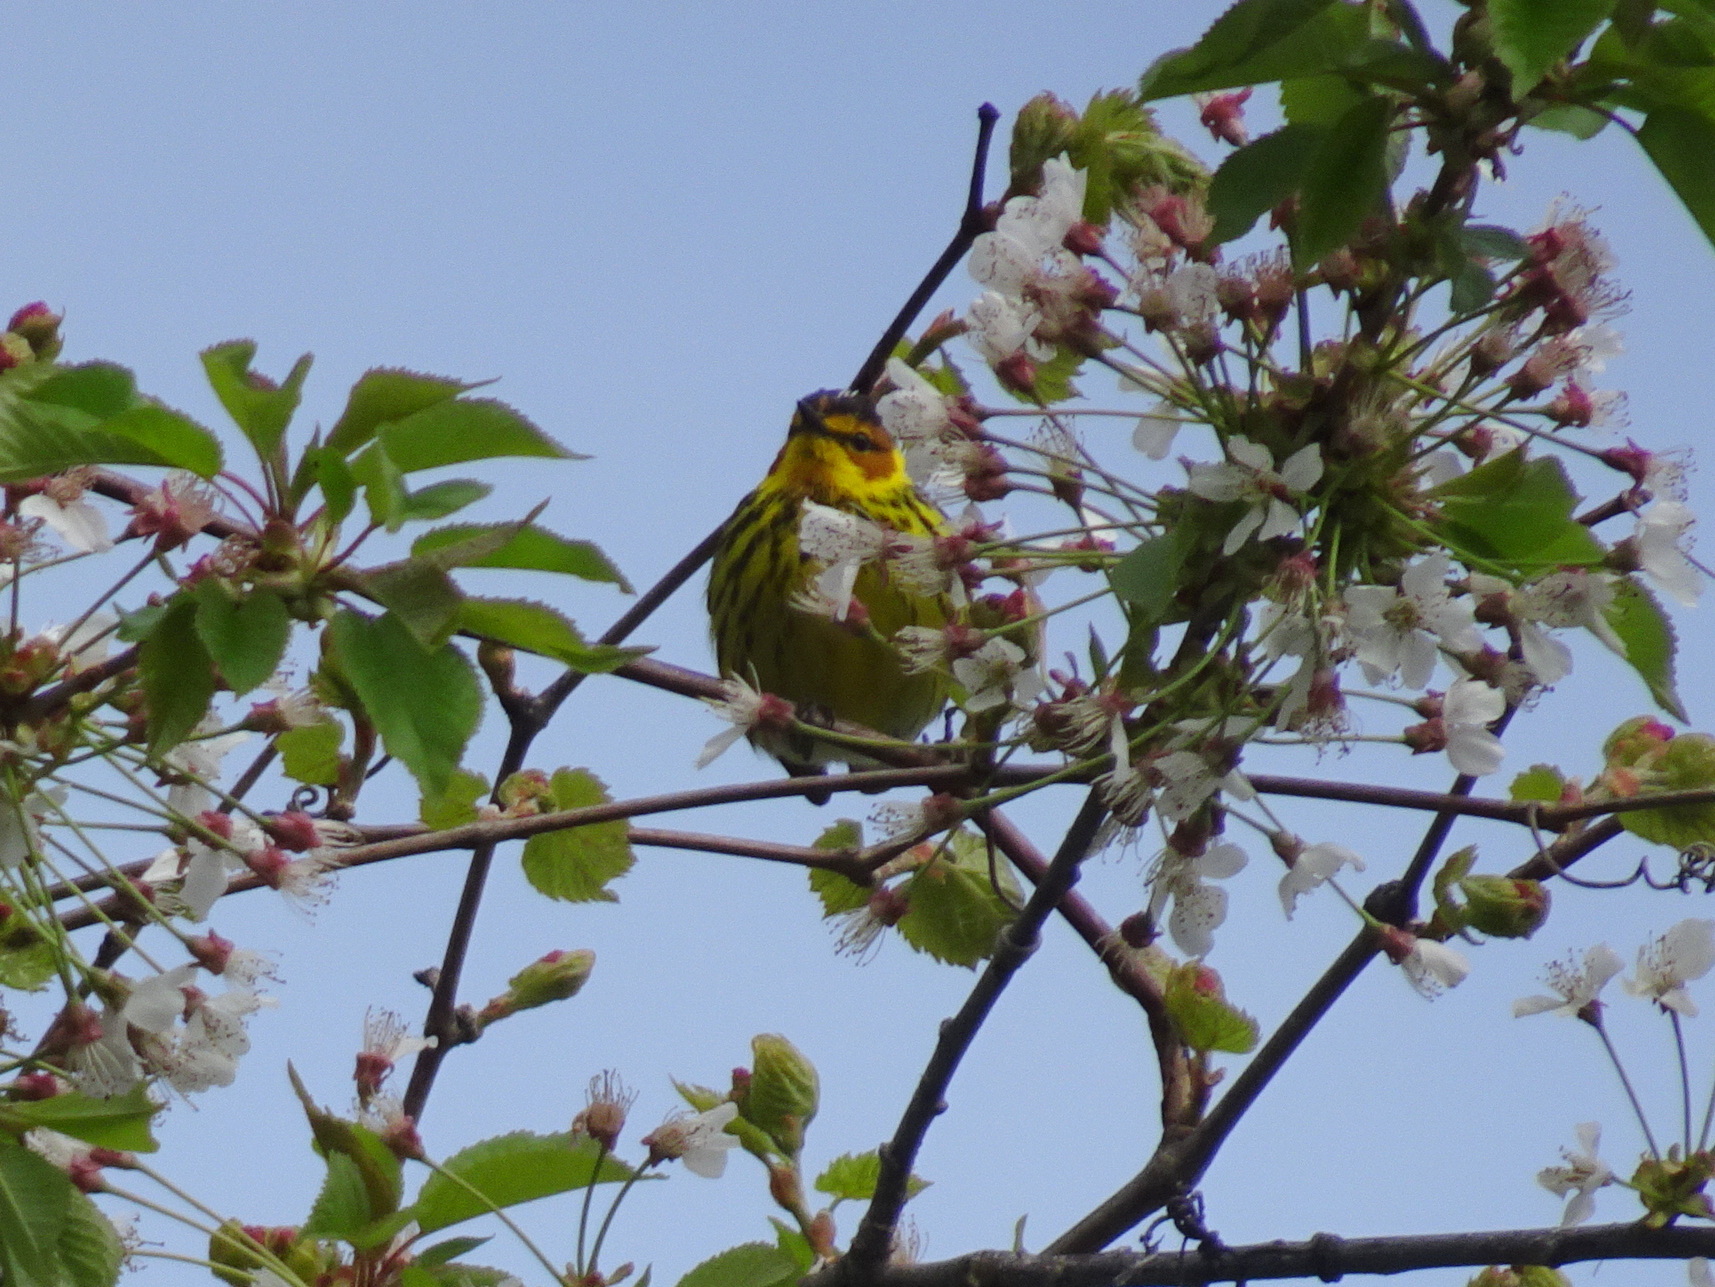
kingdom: Animalia
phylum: Chordata
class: Aves
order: Passeriformes
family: Parulidae
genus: Setophaga
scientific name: Setophaga tigrina
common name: Cape may warbler
